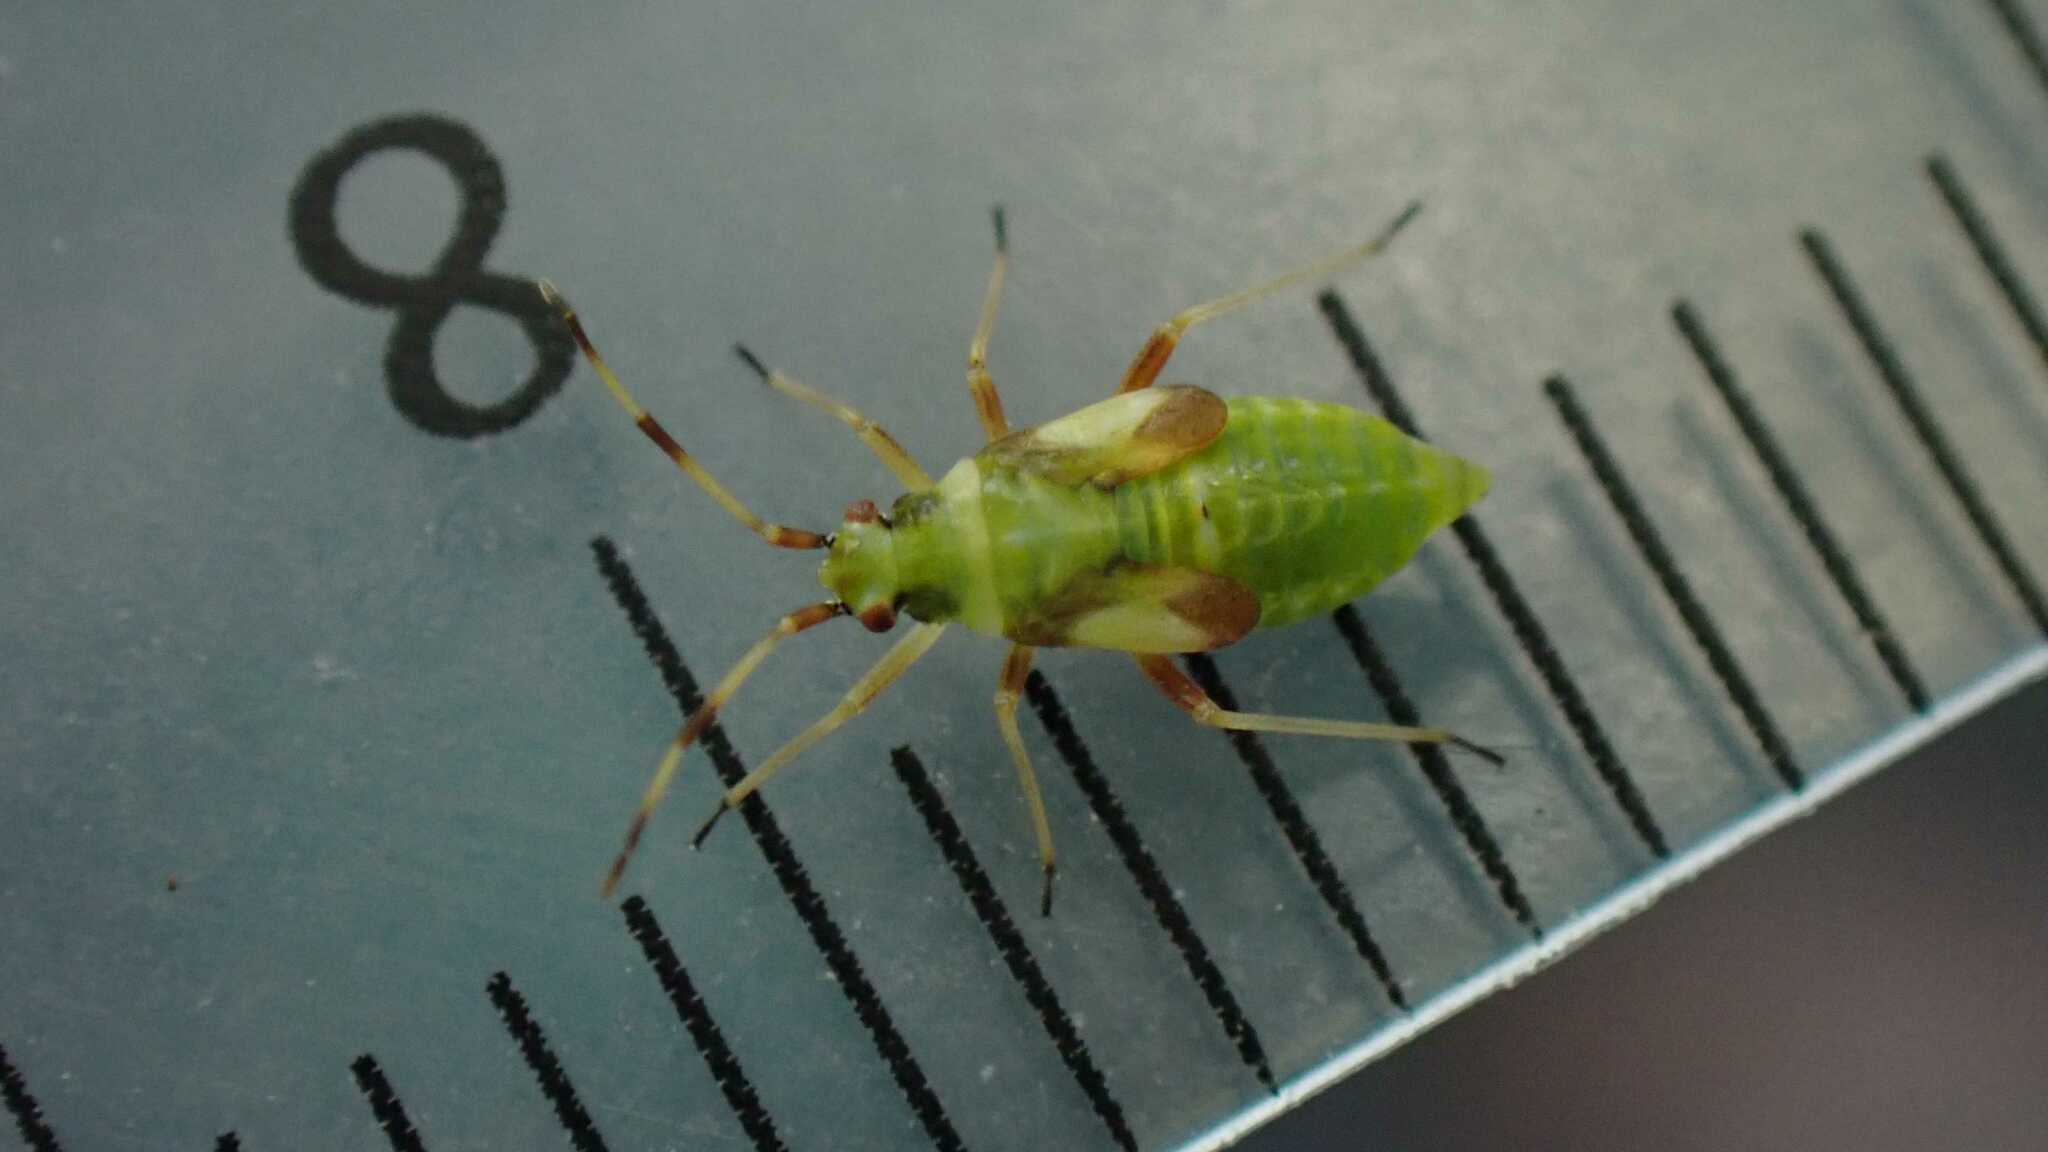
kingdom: Animalia
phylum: Arthropoda
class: Insecta
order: Hemiptera
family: Miridae
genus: Dryophilocoris
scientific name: Dryophilocoris flavoquadrimaculatus
